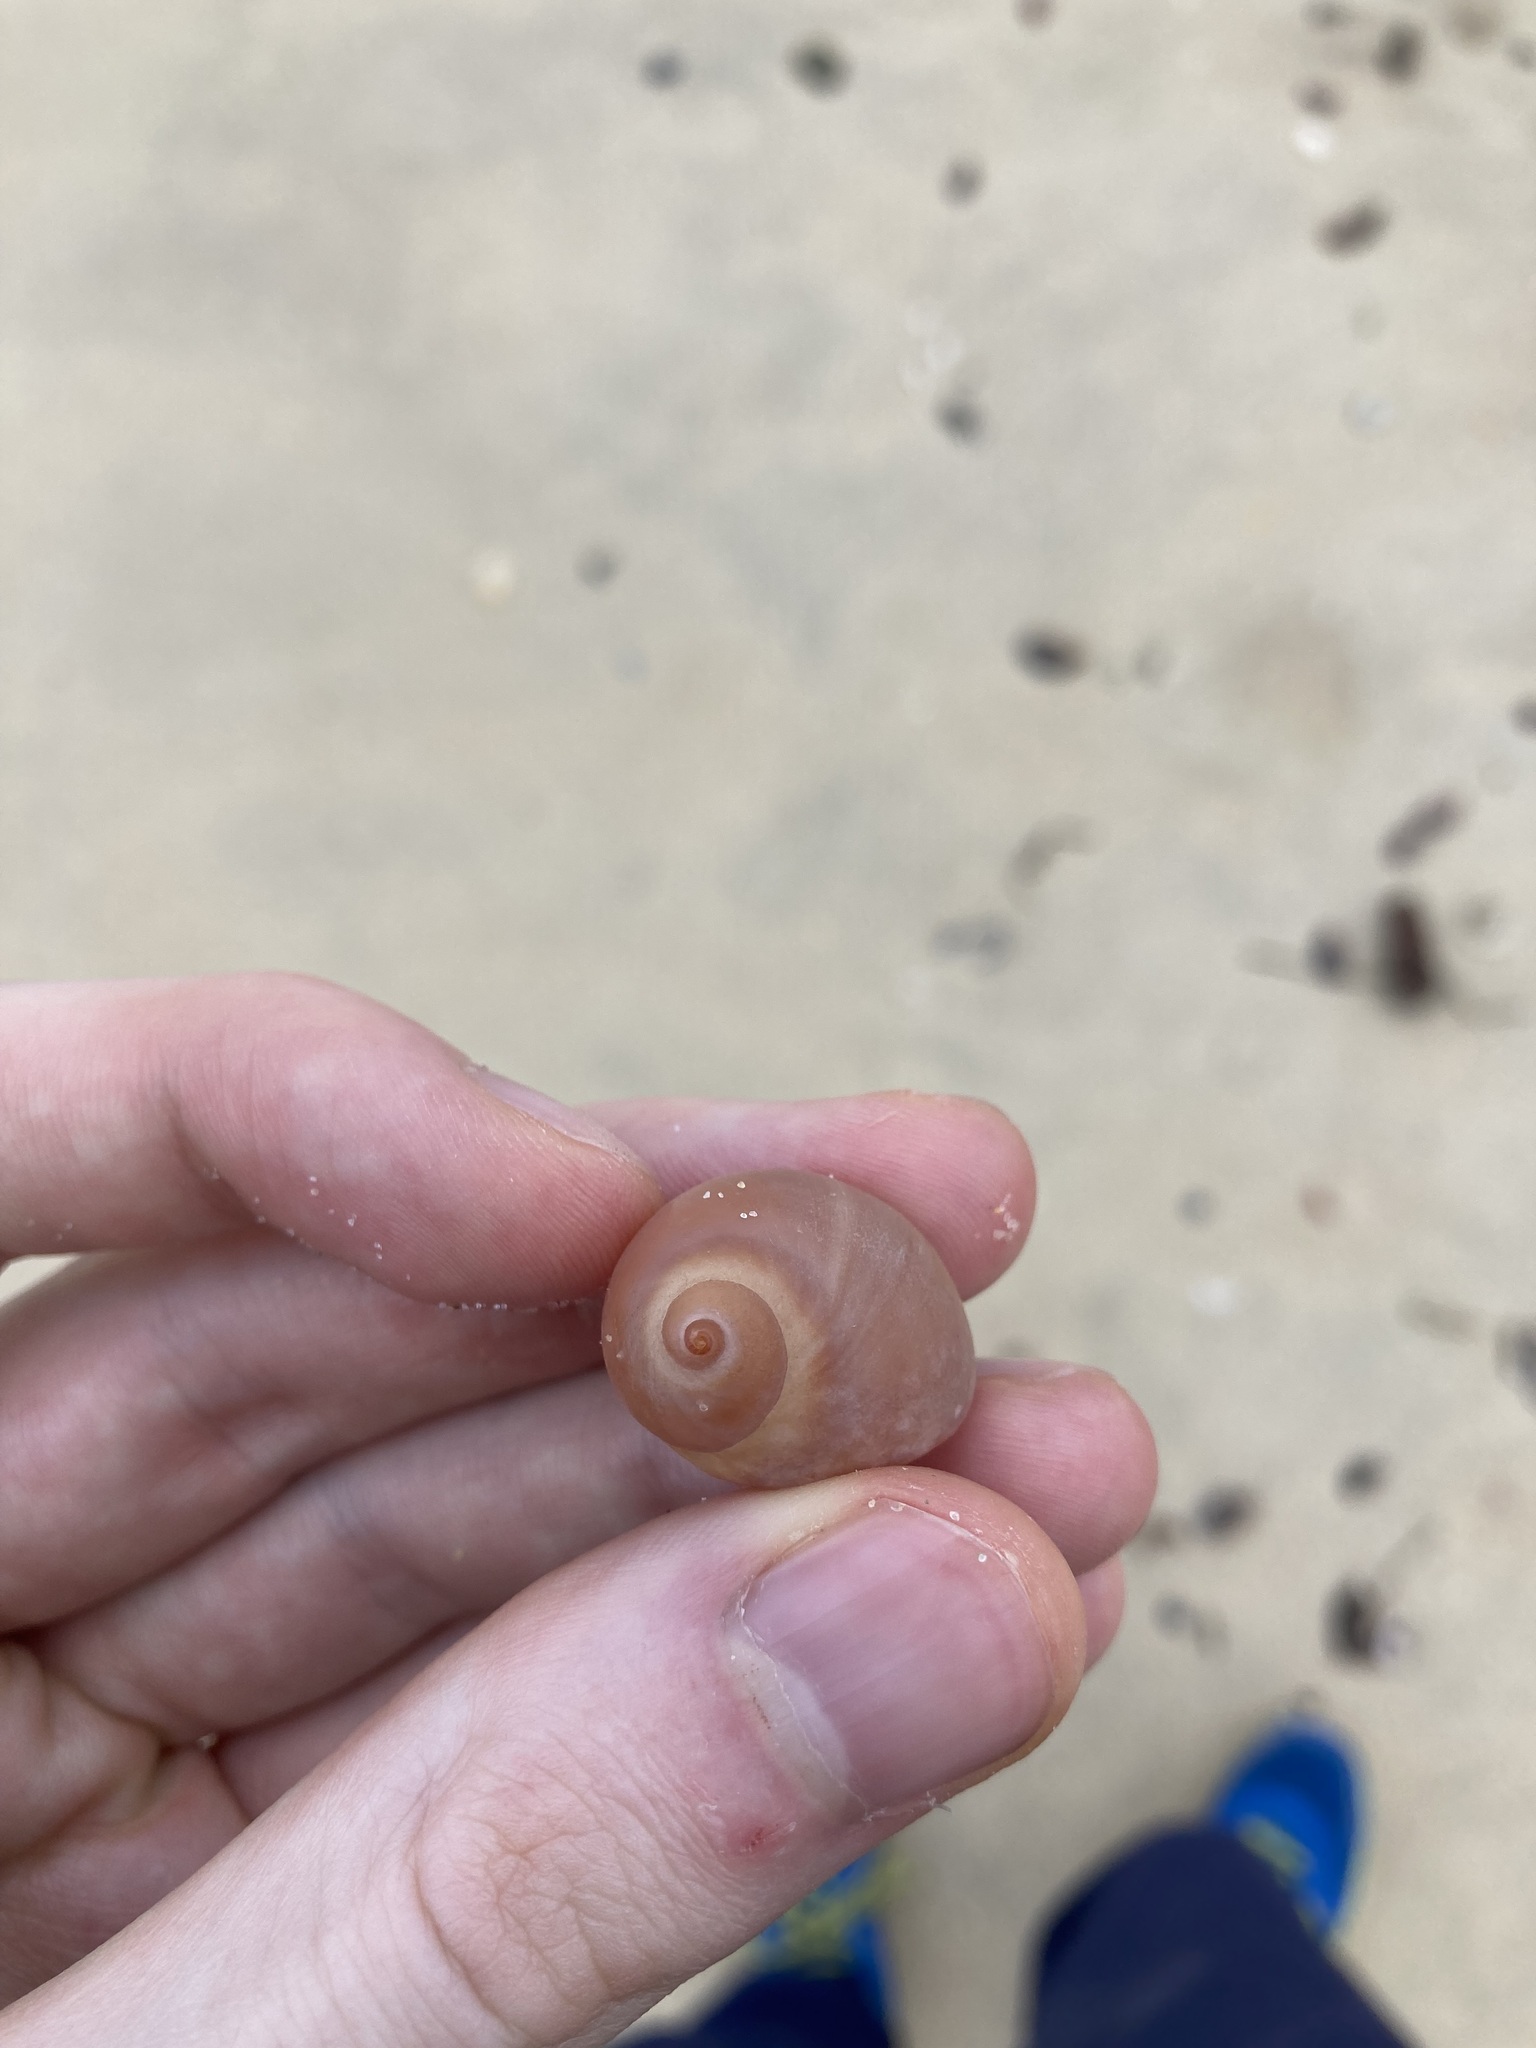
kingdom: Animalia
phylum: Mollusca
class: Gastropoda
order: Littorinimorpha
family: Naticidae
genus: Conuber
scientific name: Conuber melastoma
